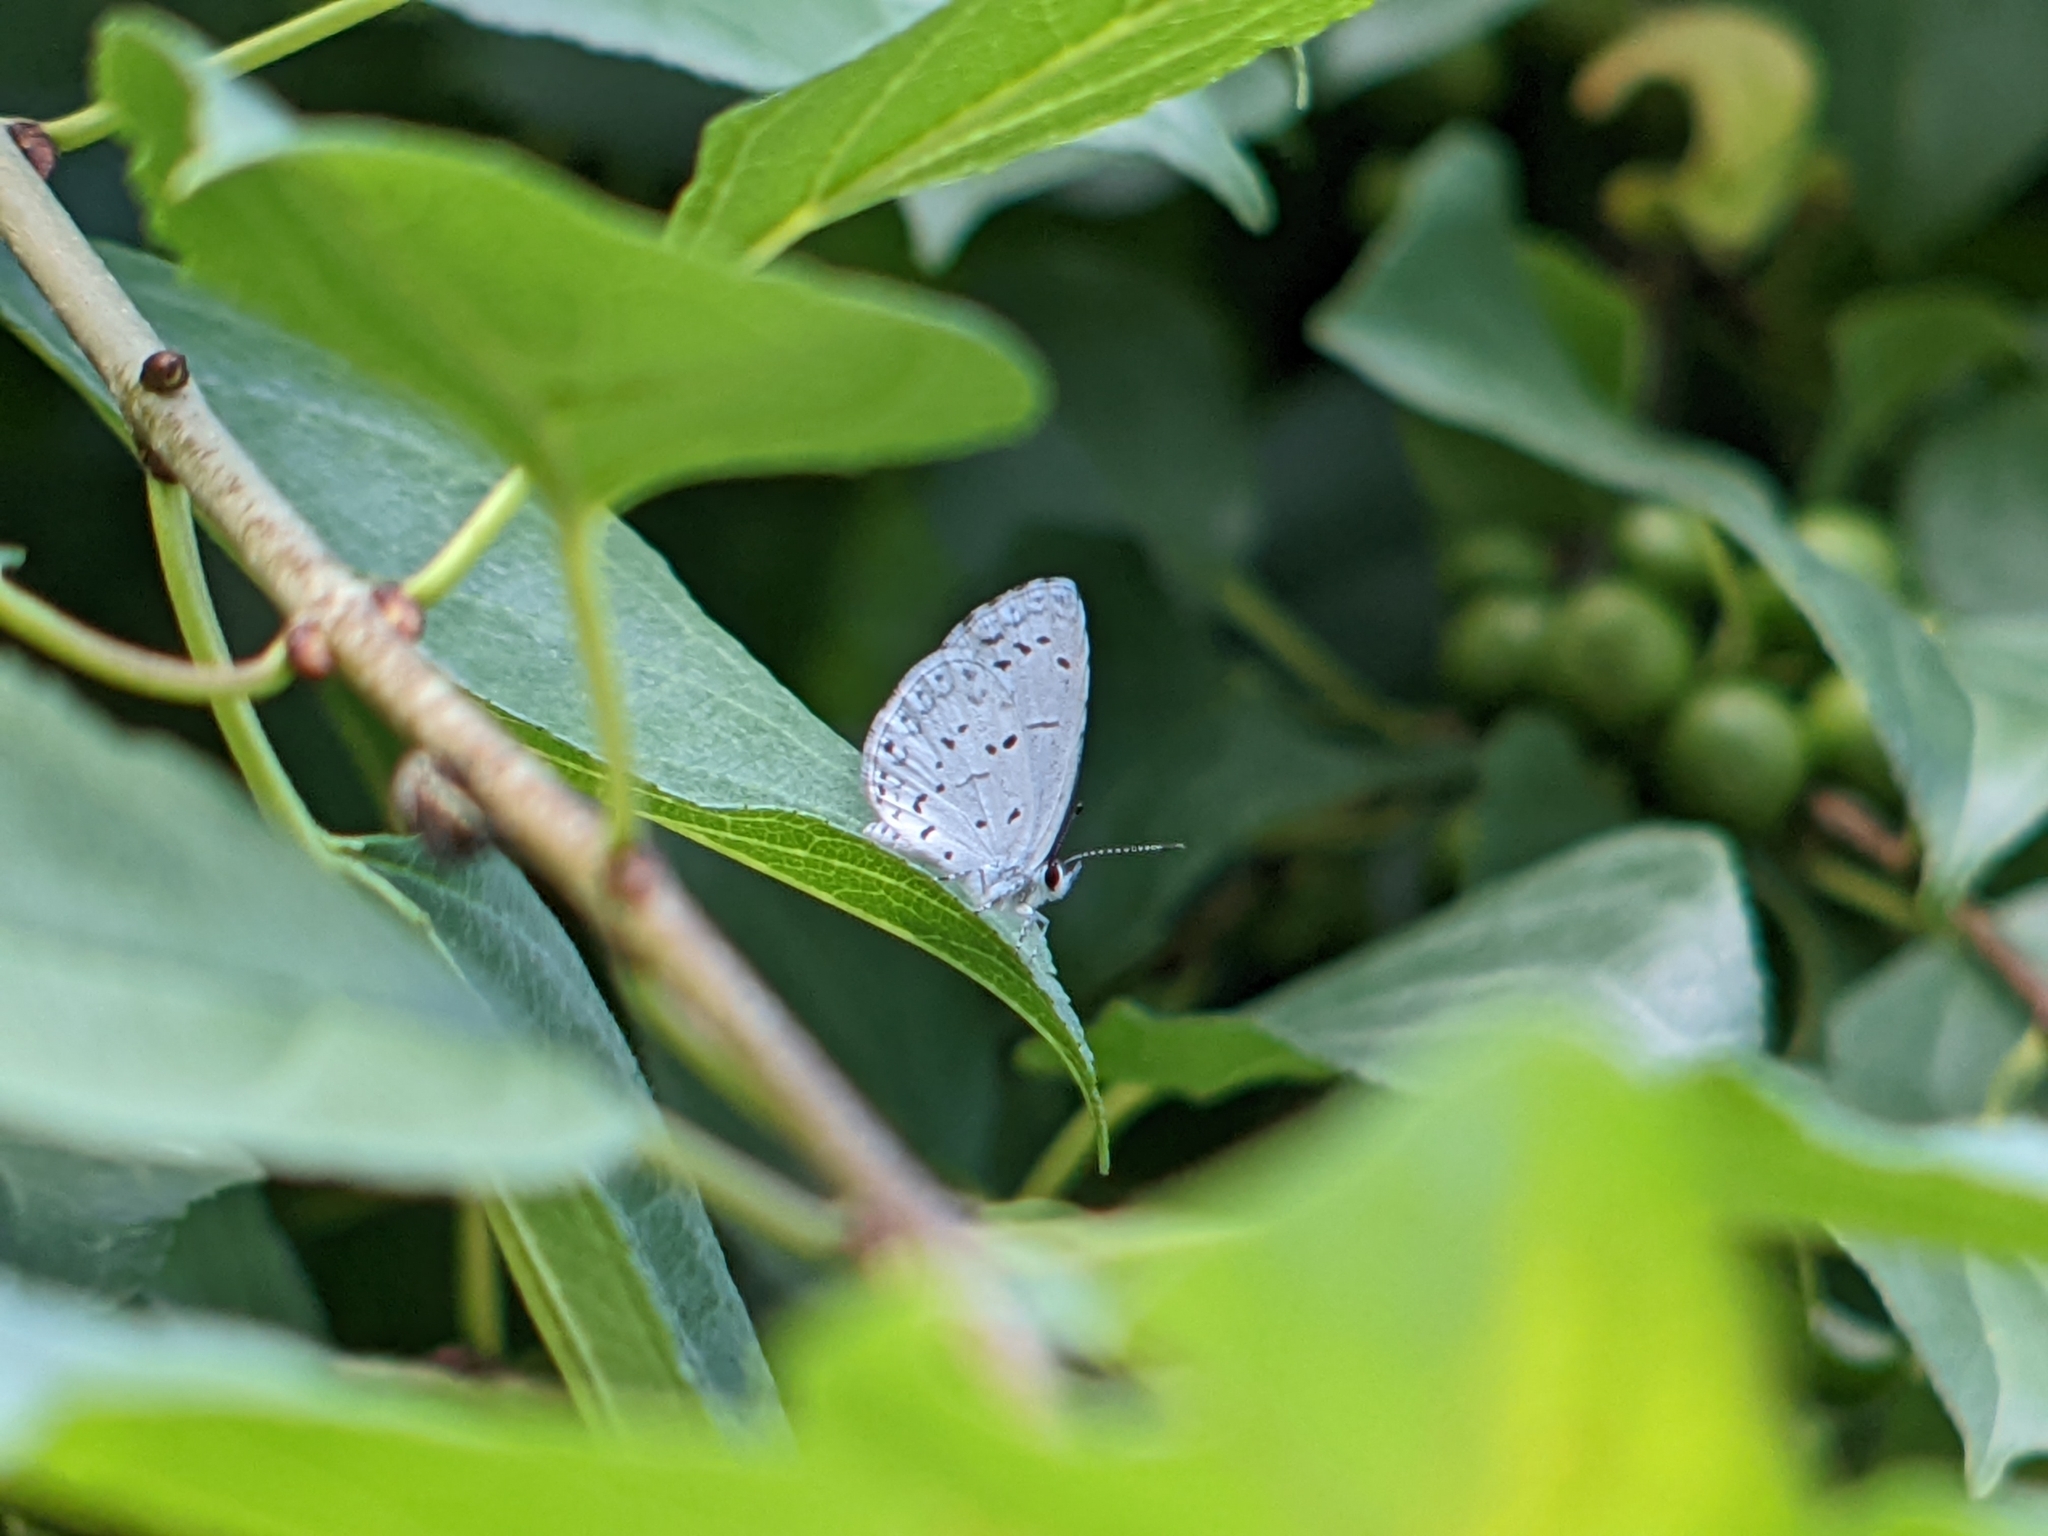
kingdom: Animalia
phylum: Arthropoda
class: Insecta
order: Lepidoptera
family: Lycaenidae
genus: Cyaniris
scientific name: Cyaniris neglecta
